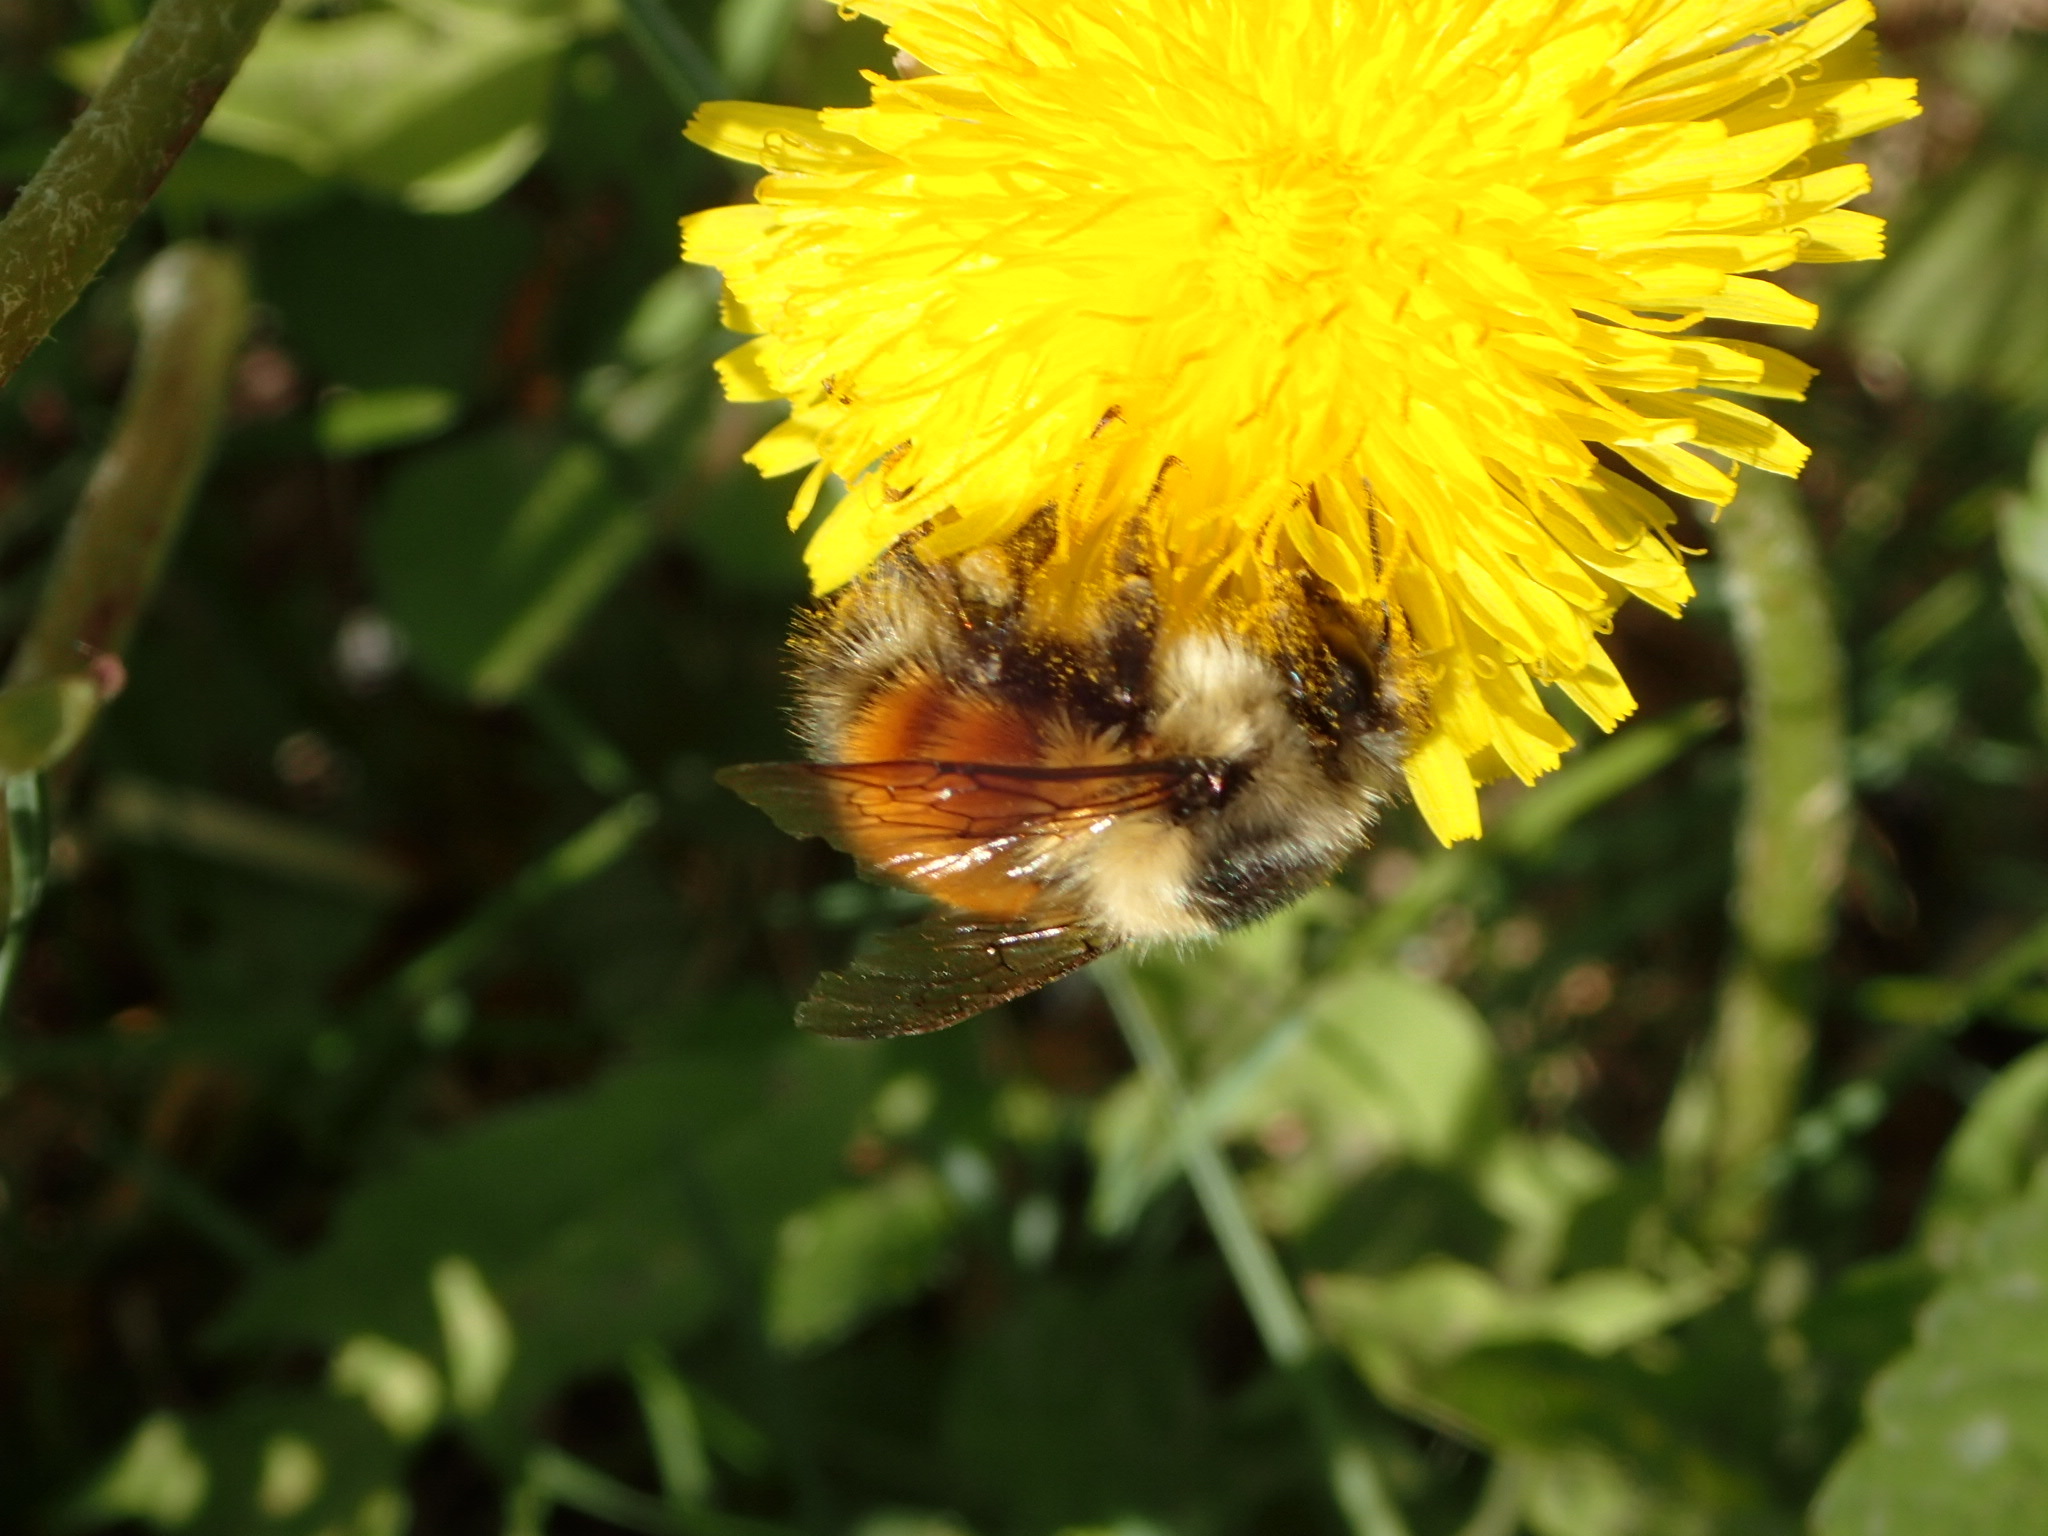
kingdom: Animalia
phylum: Arthropoda
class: Insecta
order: Hymenoptera
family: Apidae
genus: Bombus
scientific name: Bombus melanopygus
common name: Black tail bumble bee
